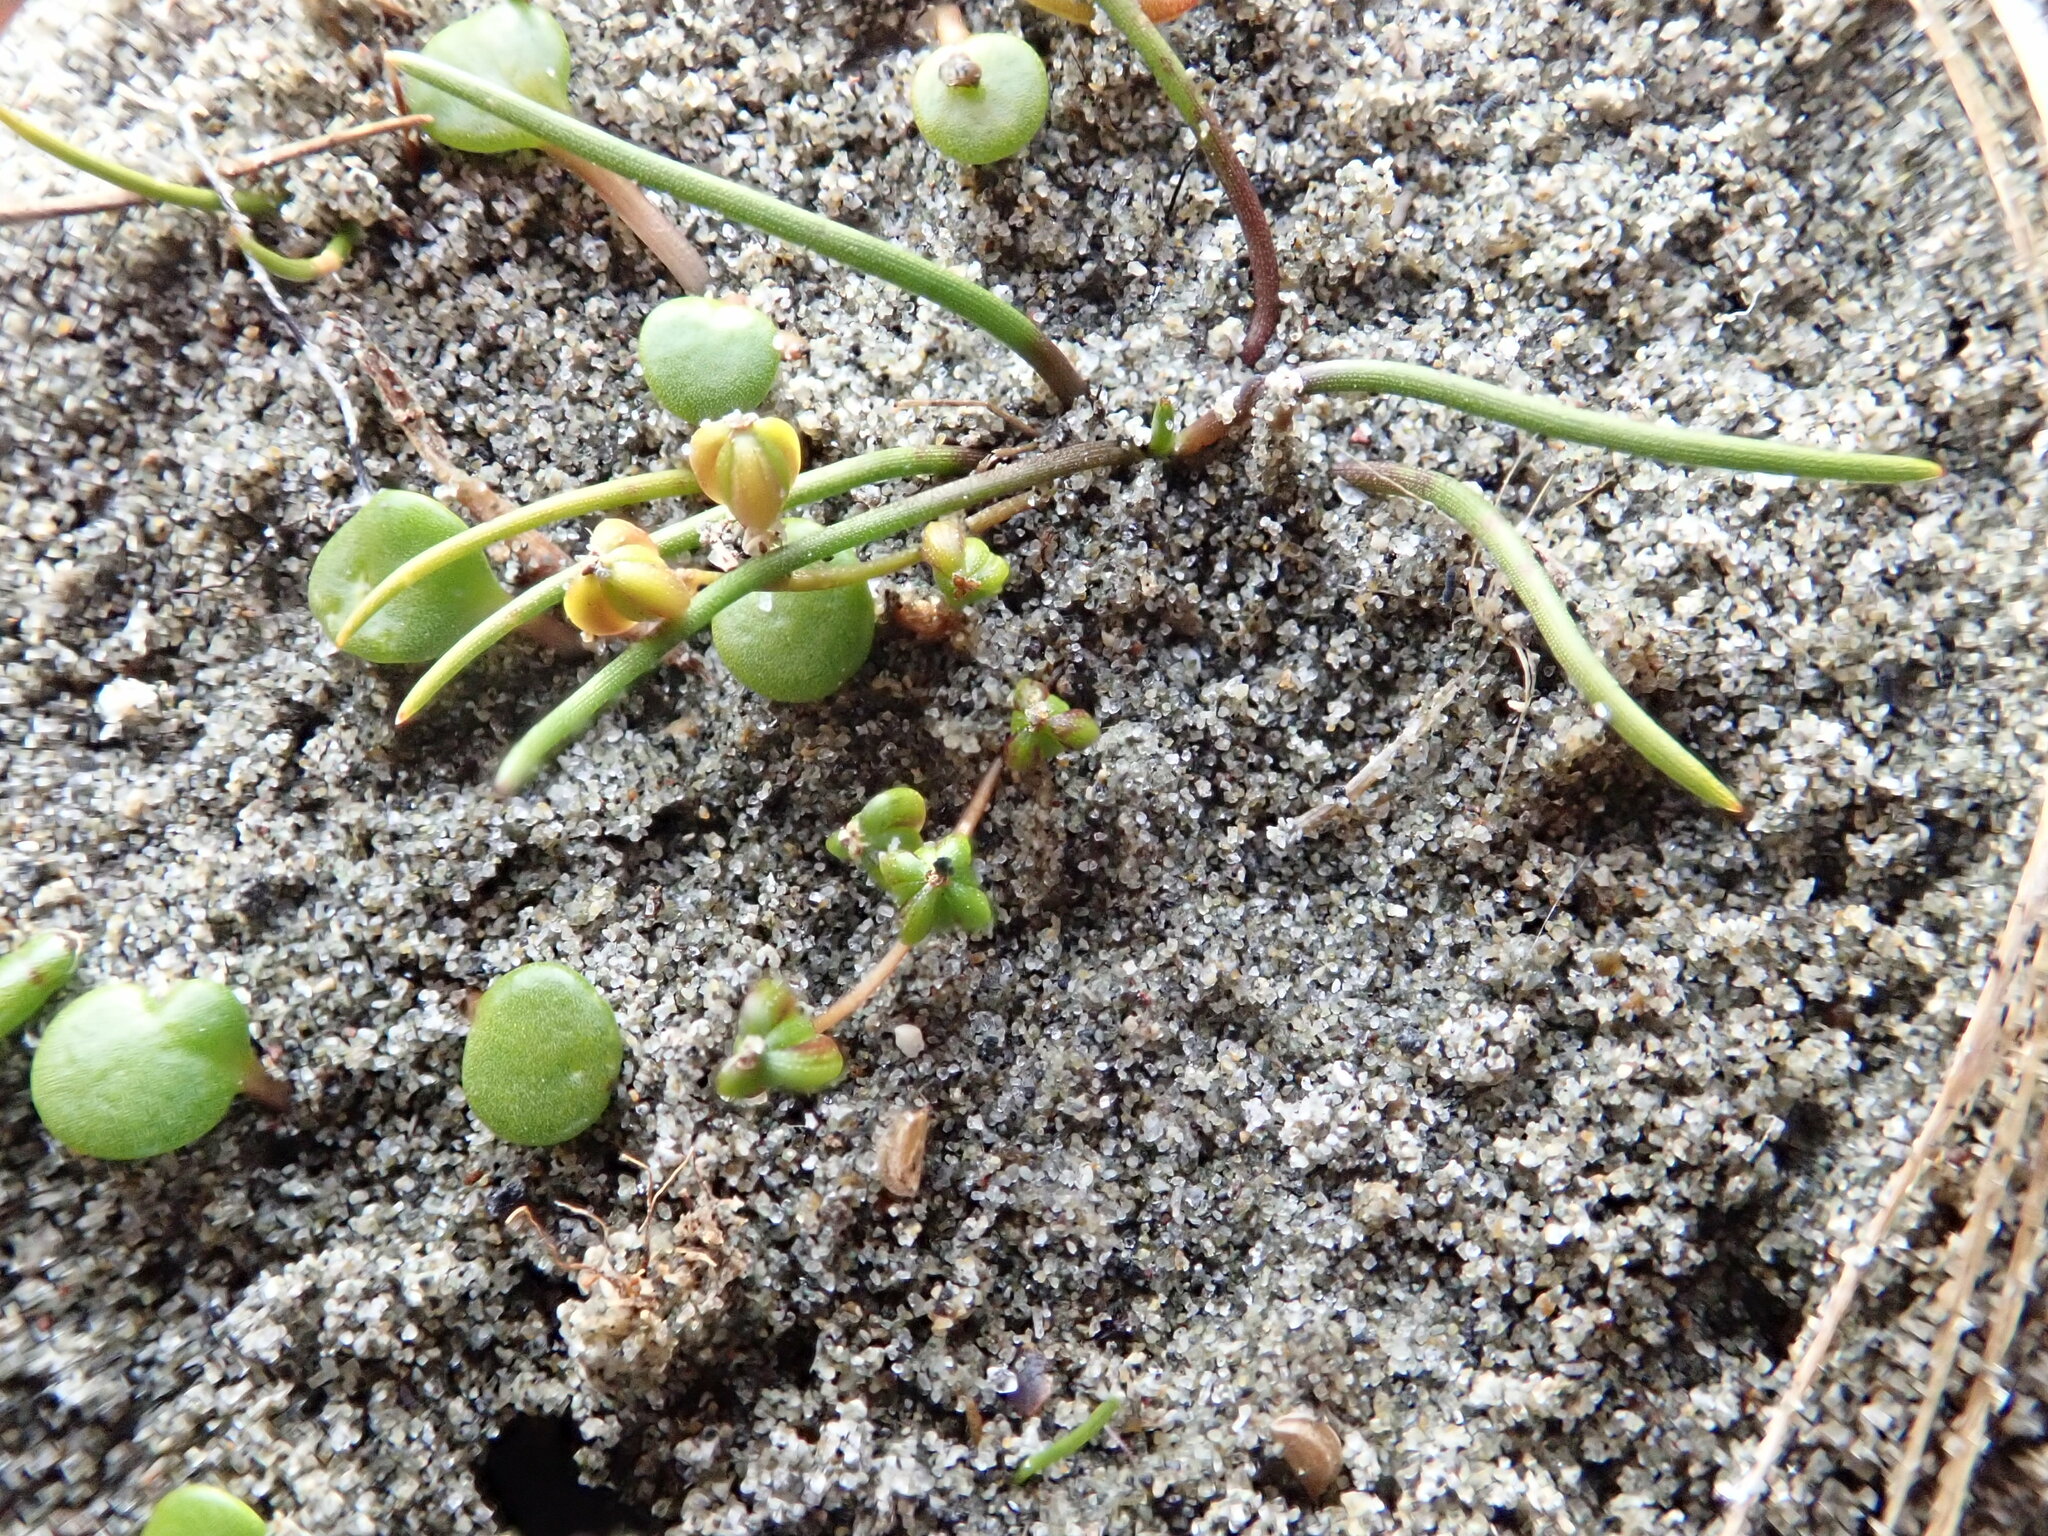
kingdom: Plantae
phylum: Tracheophyta
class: Liliopsida
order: Alismatales
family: Juncaginaceae
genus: Triglochin
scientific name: Triglochin striata
